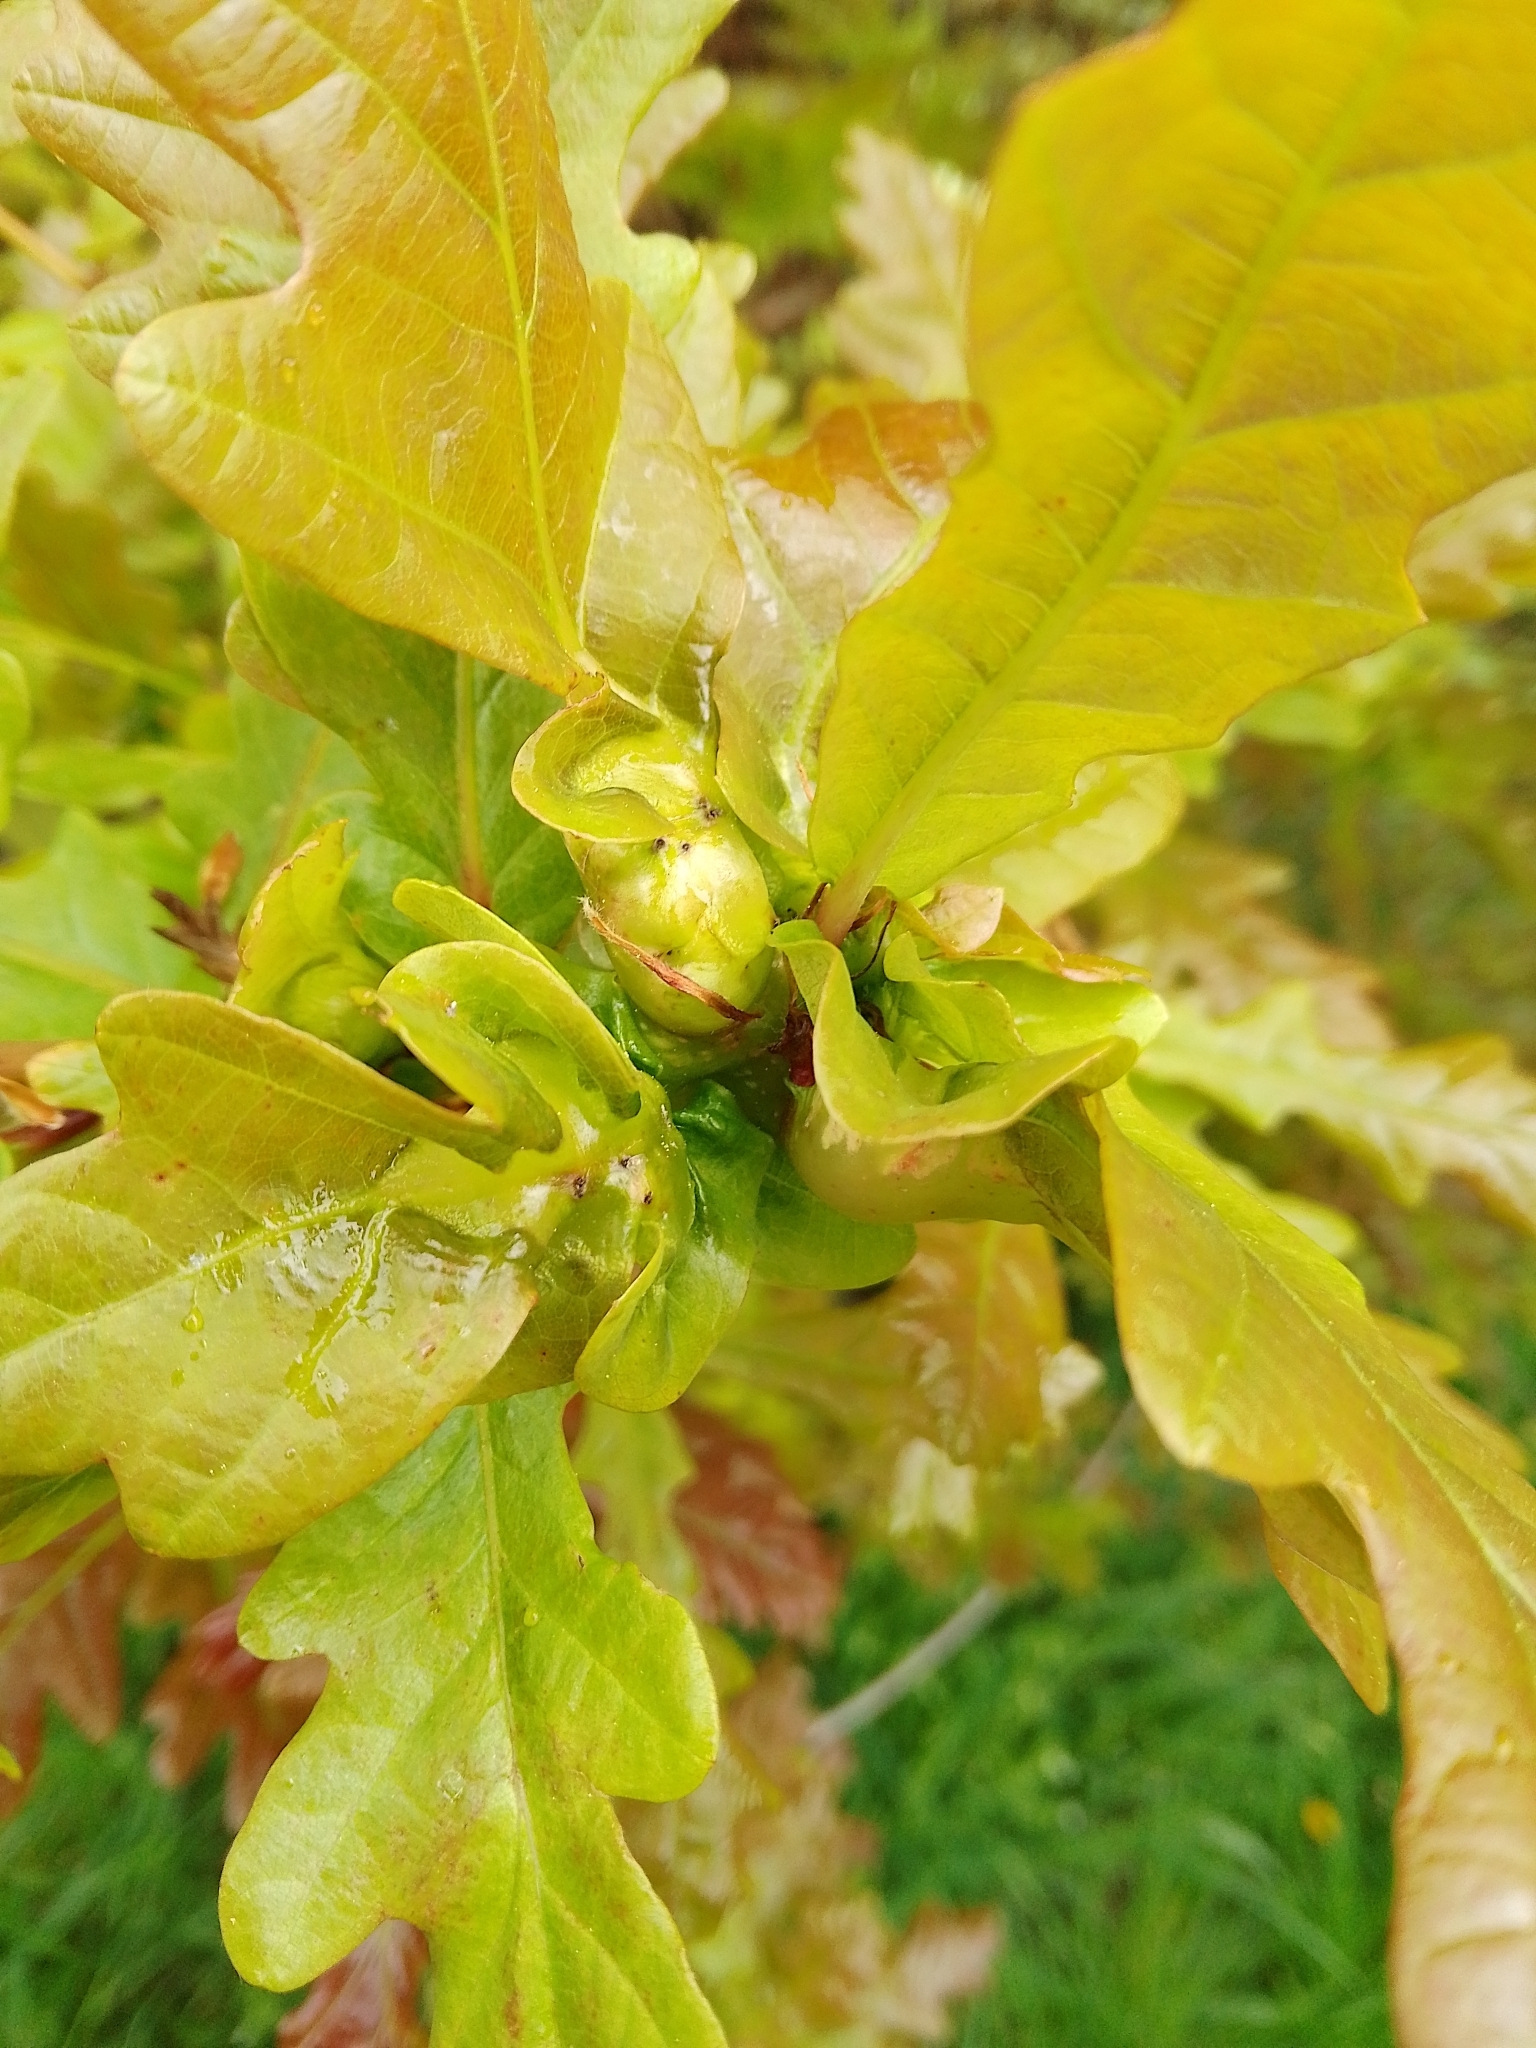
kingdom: Animalia
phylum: Arthropoda
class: Insecta
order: Hymenoptera
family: Cynipidae
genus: Andricus
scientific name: Andricus curvator
